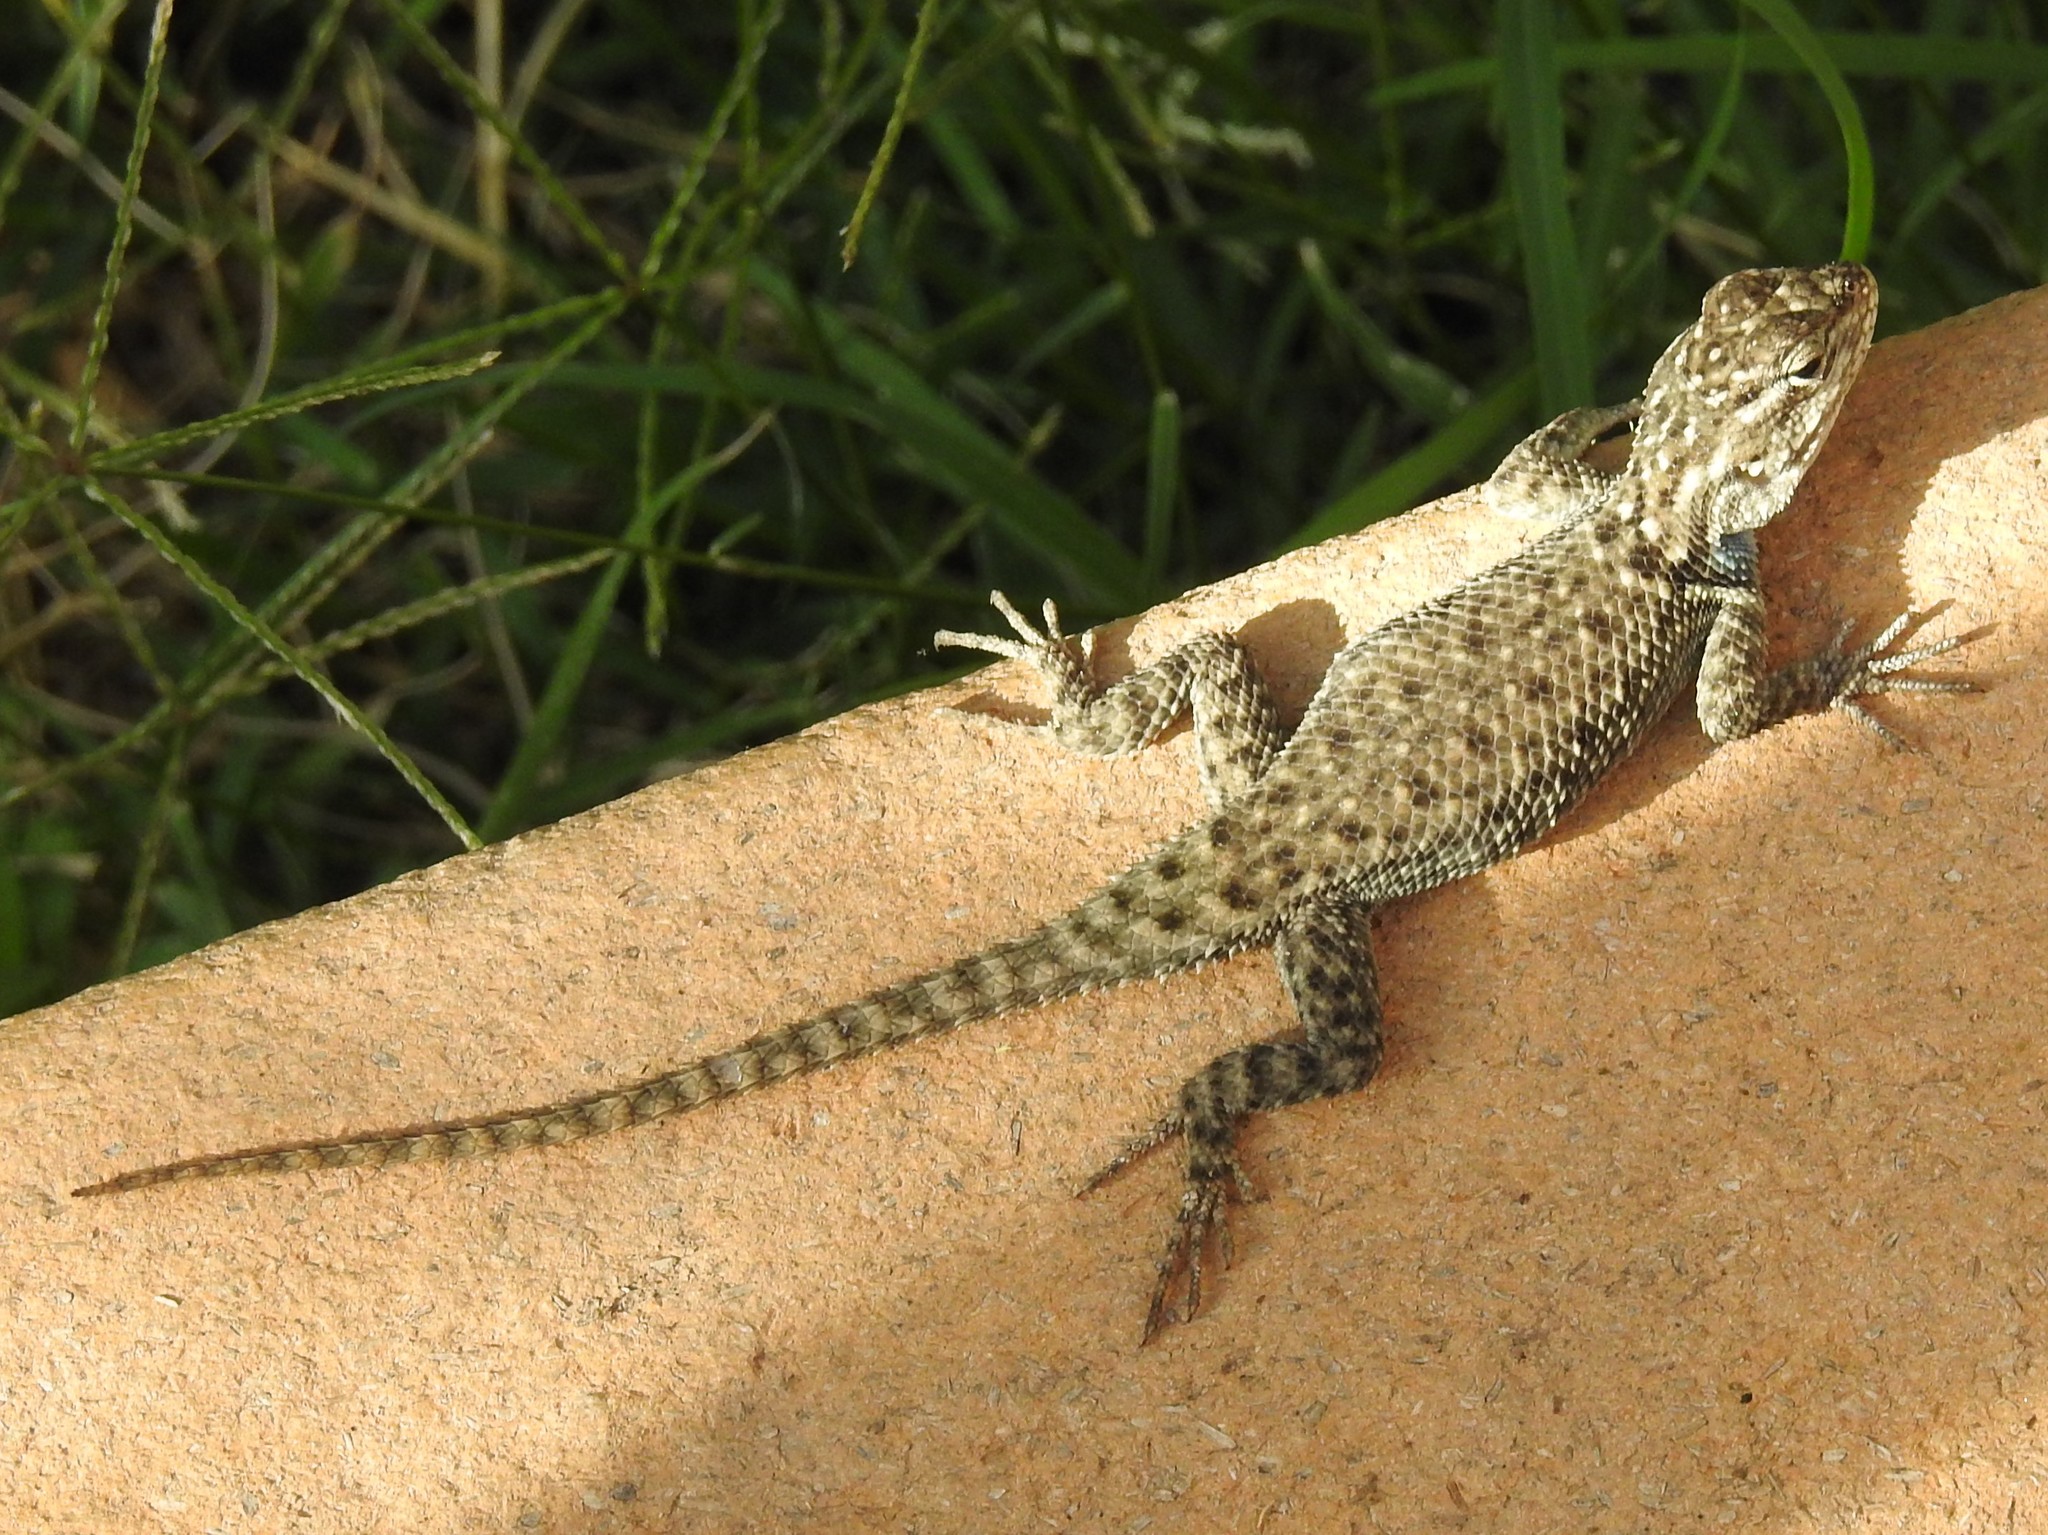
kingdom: Animalia
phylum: Chordata
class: Squamata
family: Phrynosomatidae
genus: Sceloporus
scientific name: Sceloporus jarrovii
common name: Yarrow's spiny lizard
